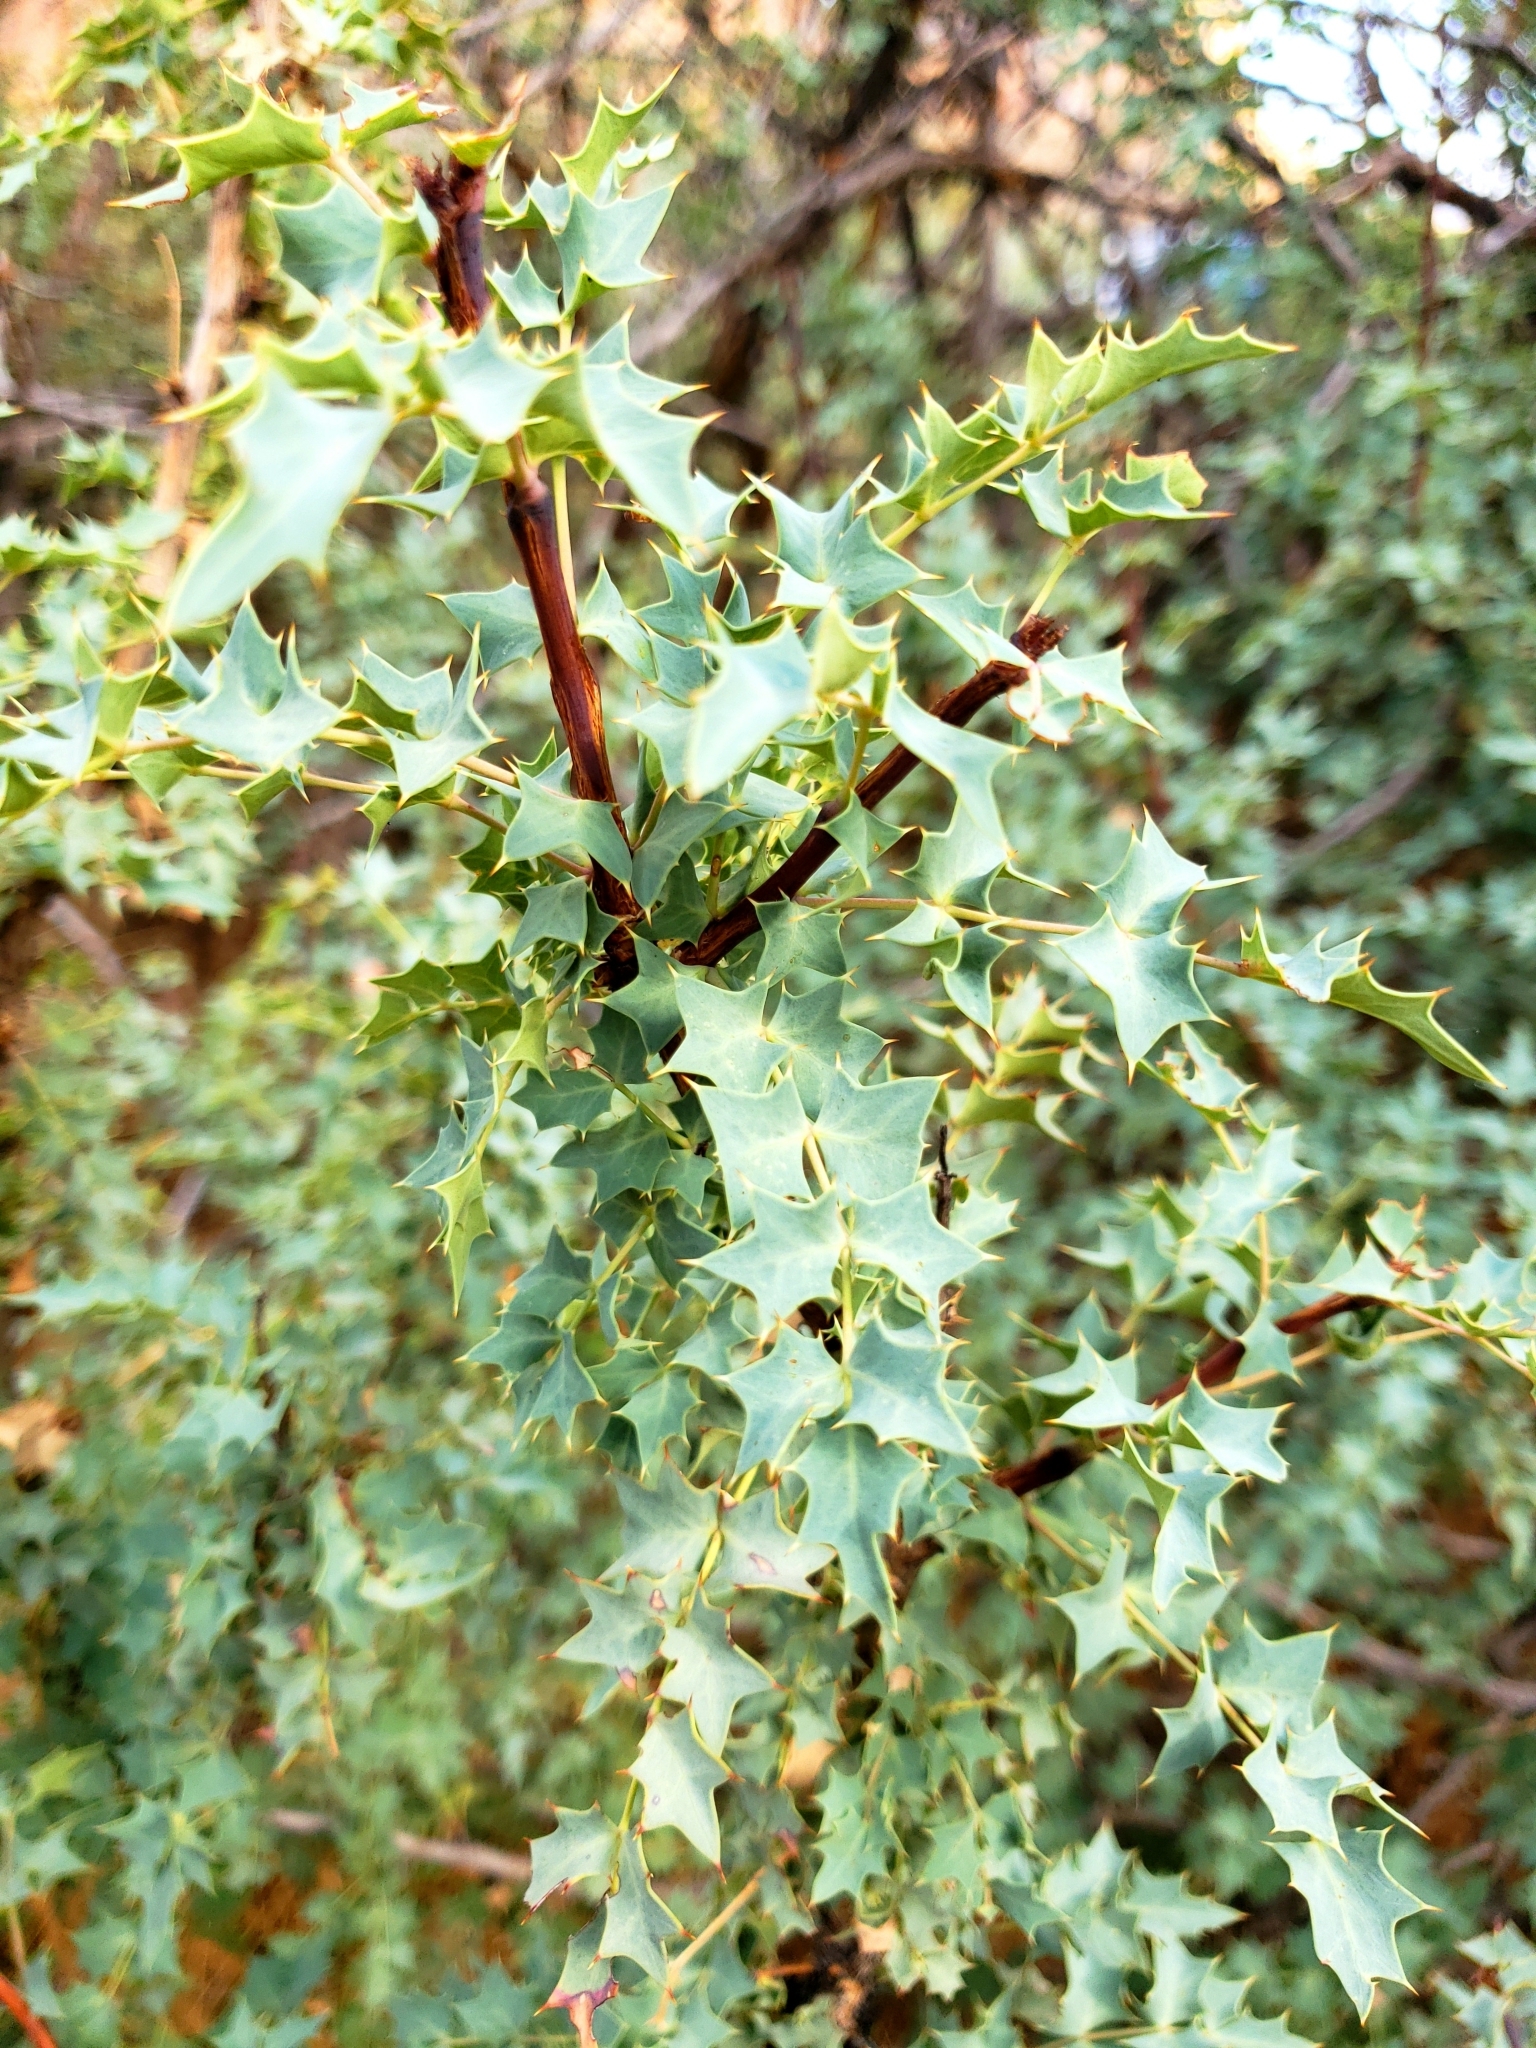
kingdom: Plantae
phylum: Tracheophyta
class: Magnoliopsida
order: Ranunculales
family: Berberidaceae
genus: Alloberberis
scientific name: Alloberberis fremontii
